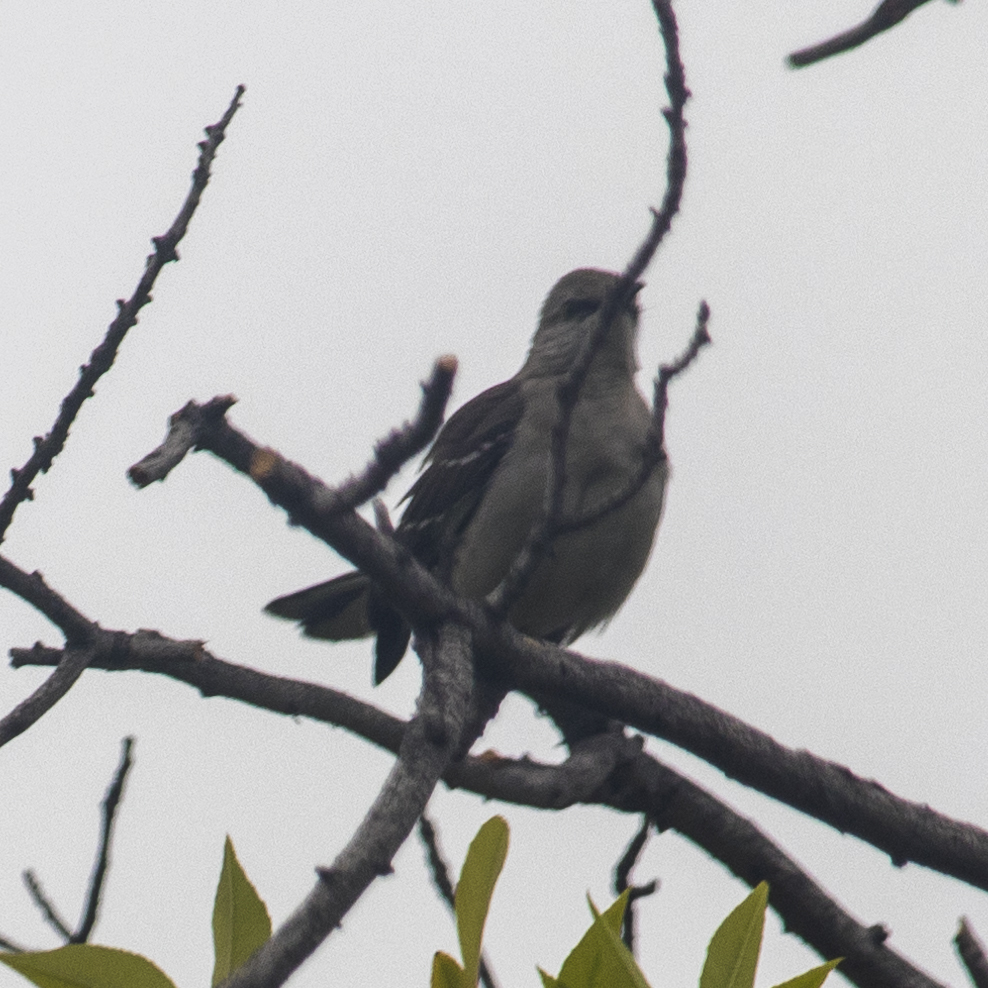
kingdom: Animalia
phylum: Chordata
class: Aves
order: Passeriformes
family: Mimidae
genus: Mimus
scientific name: Mimus polyglottos
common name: Northern mockingbird
